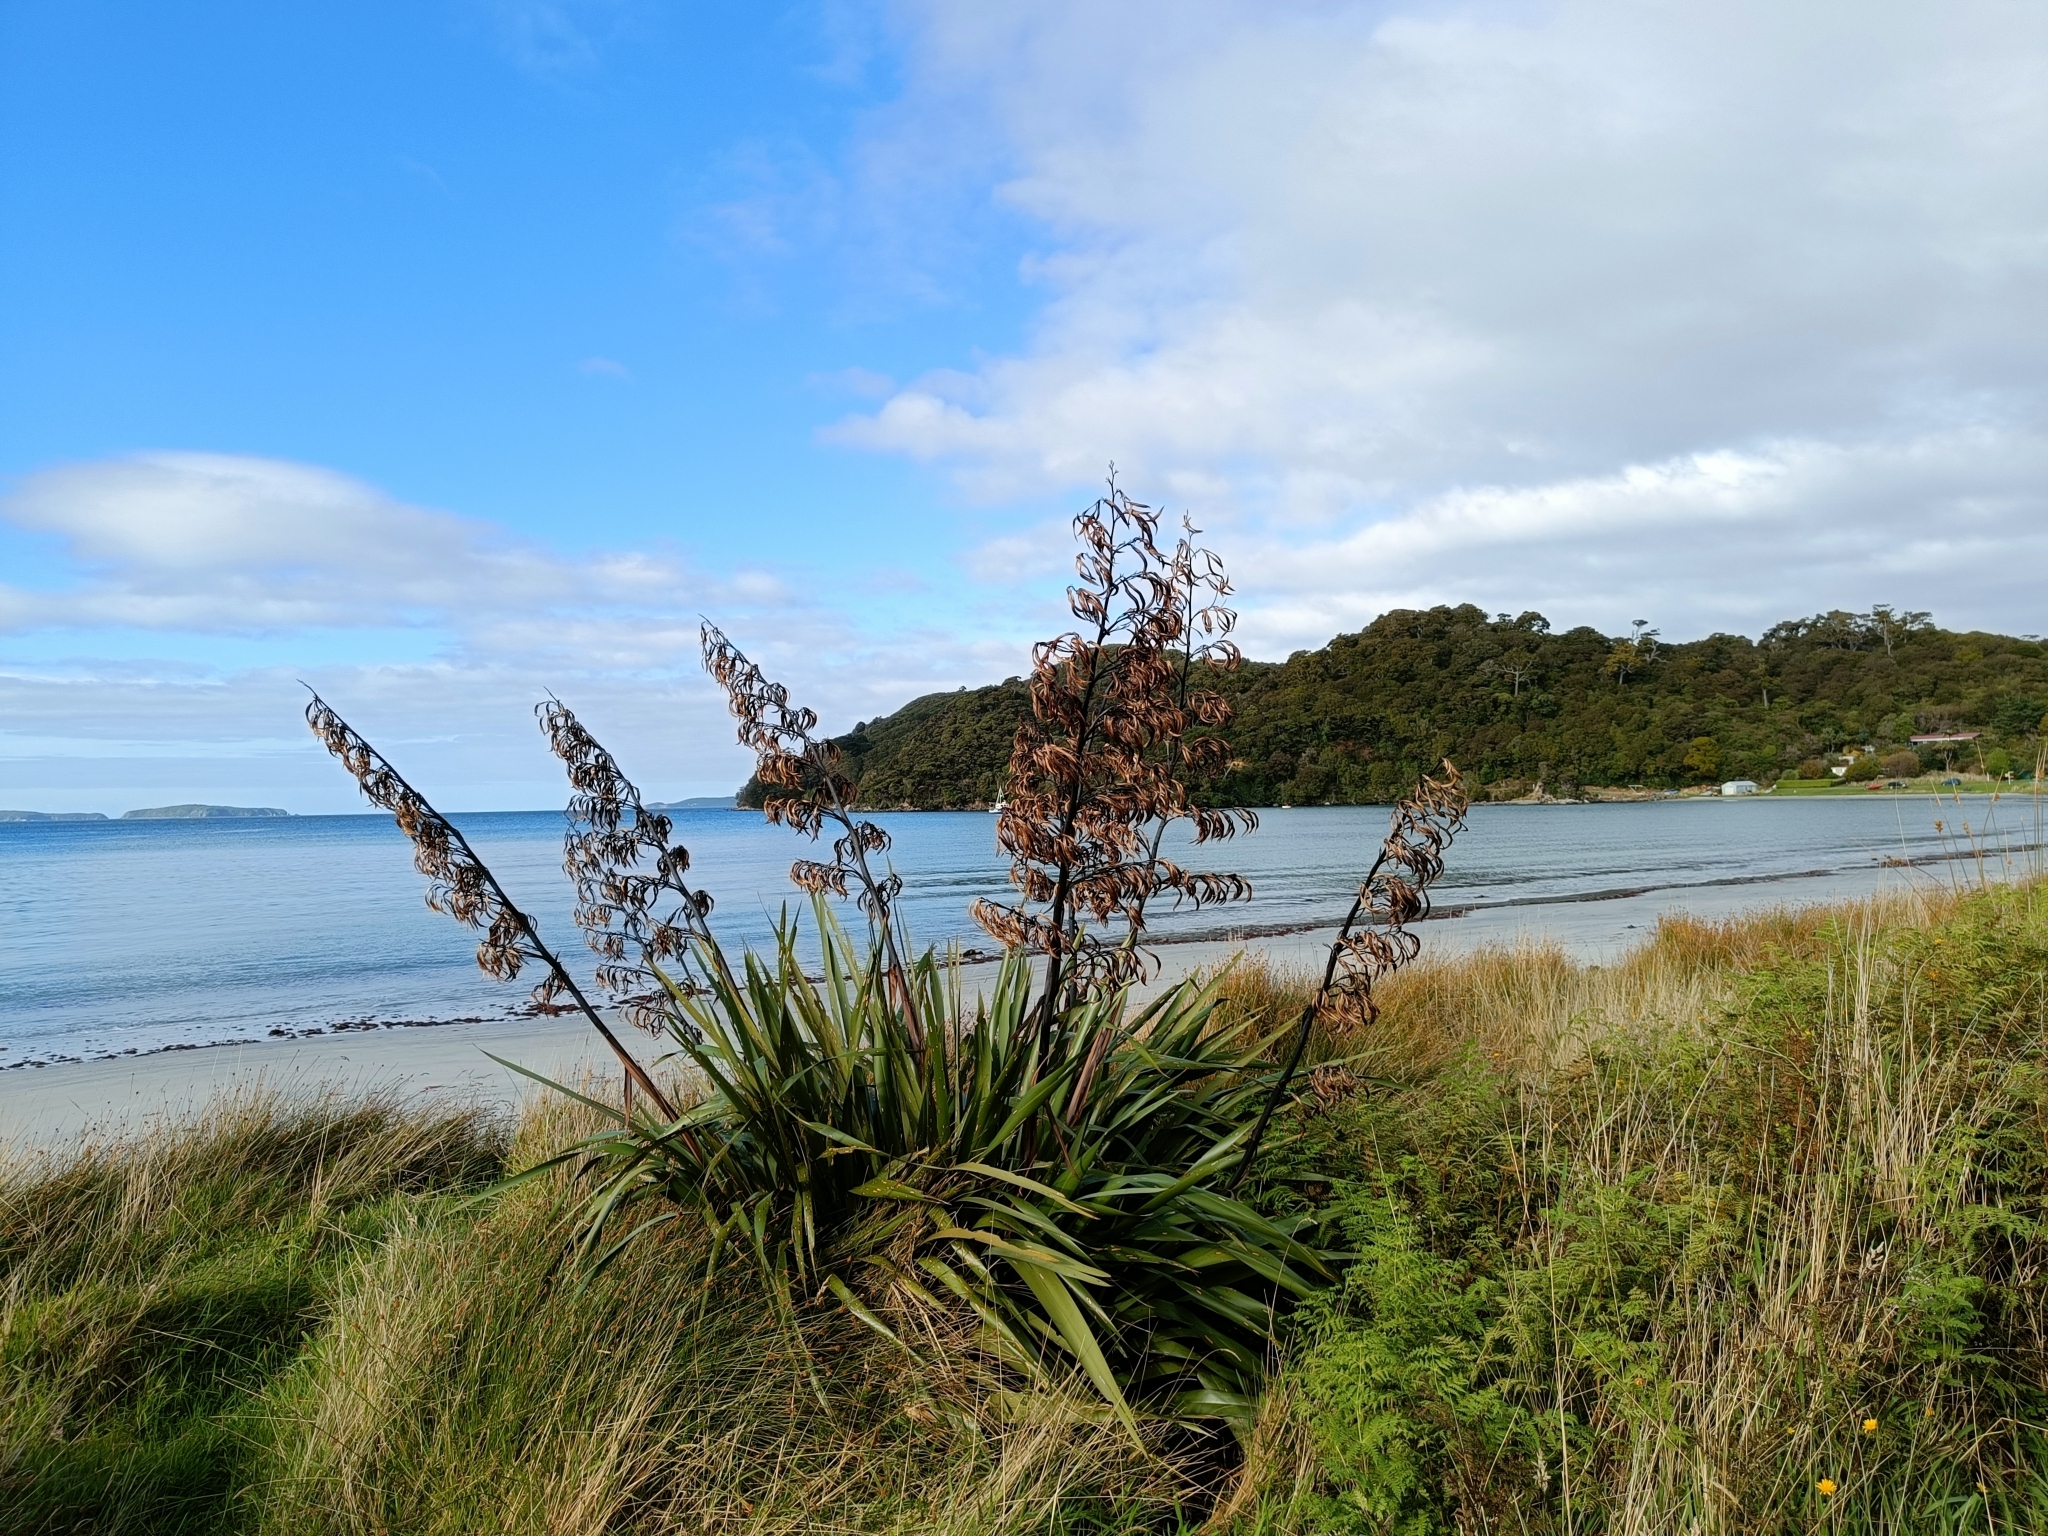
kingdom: Plantae
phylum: Tracheophyta
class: Liliopsida
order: Asparagales
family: Asphodelaceae
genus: Phormium
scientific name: Phormium tenax
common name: New zealand flax
